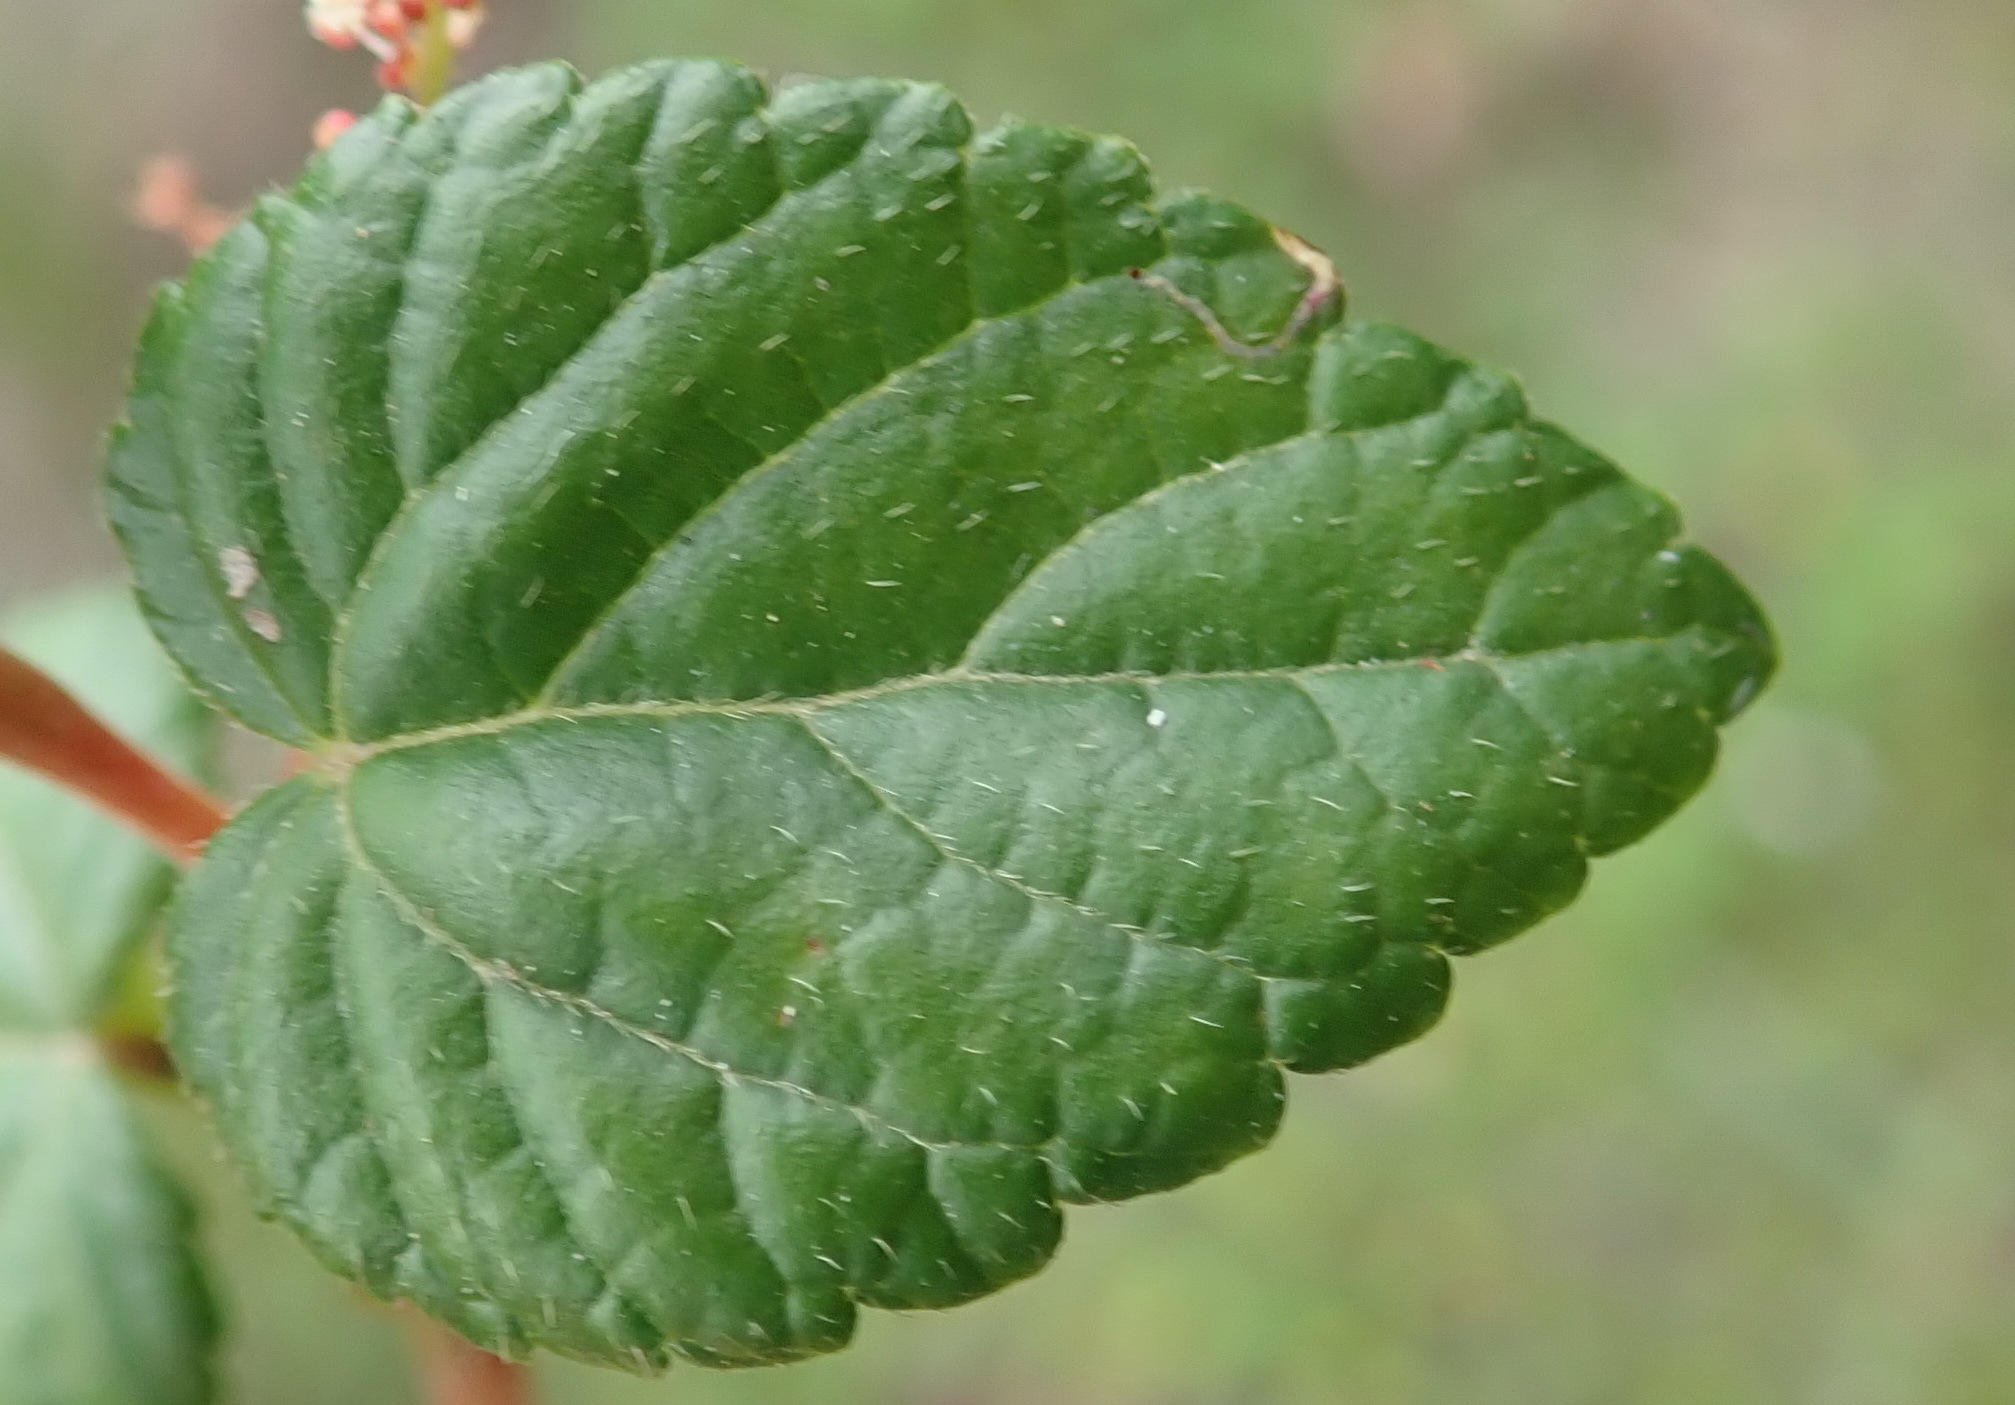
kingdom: Plantae
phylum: Tracheophyta
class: Magnoliopsida
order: Malpighiales
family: Euphorbiaceae
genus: Bernardia
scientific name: Bernardia corensis
